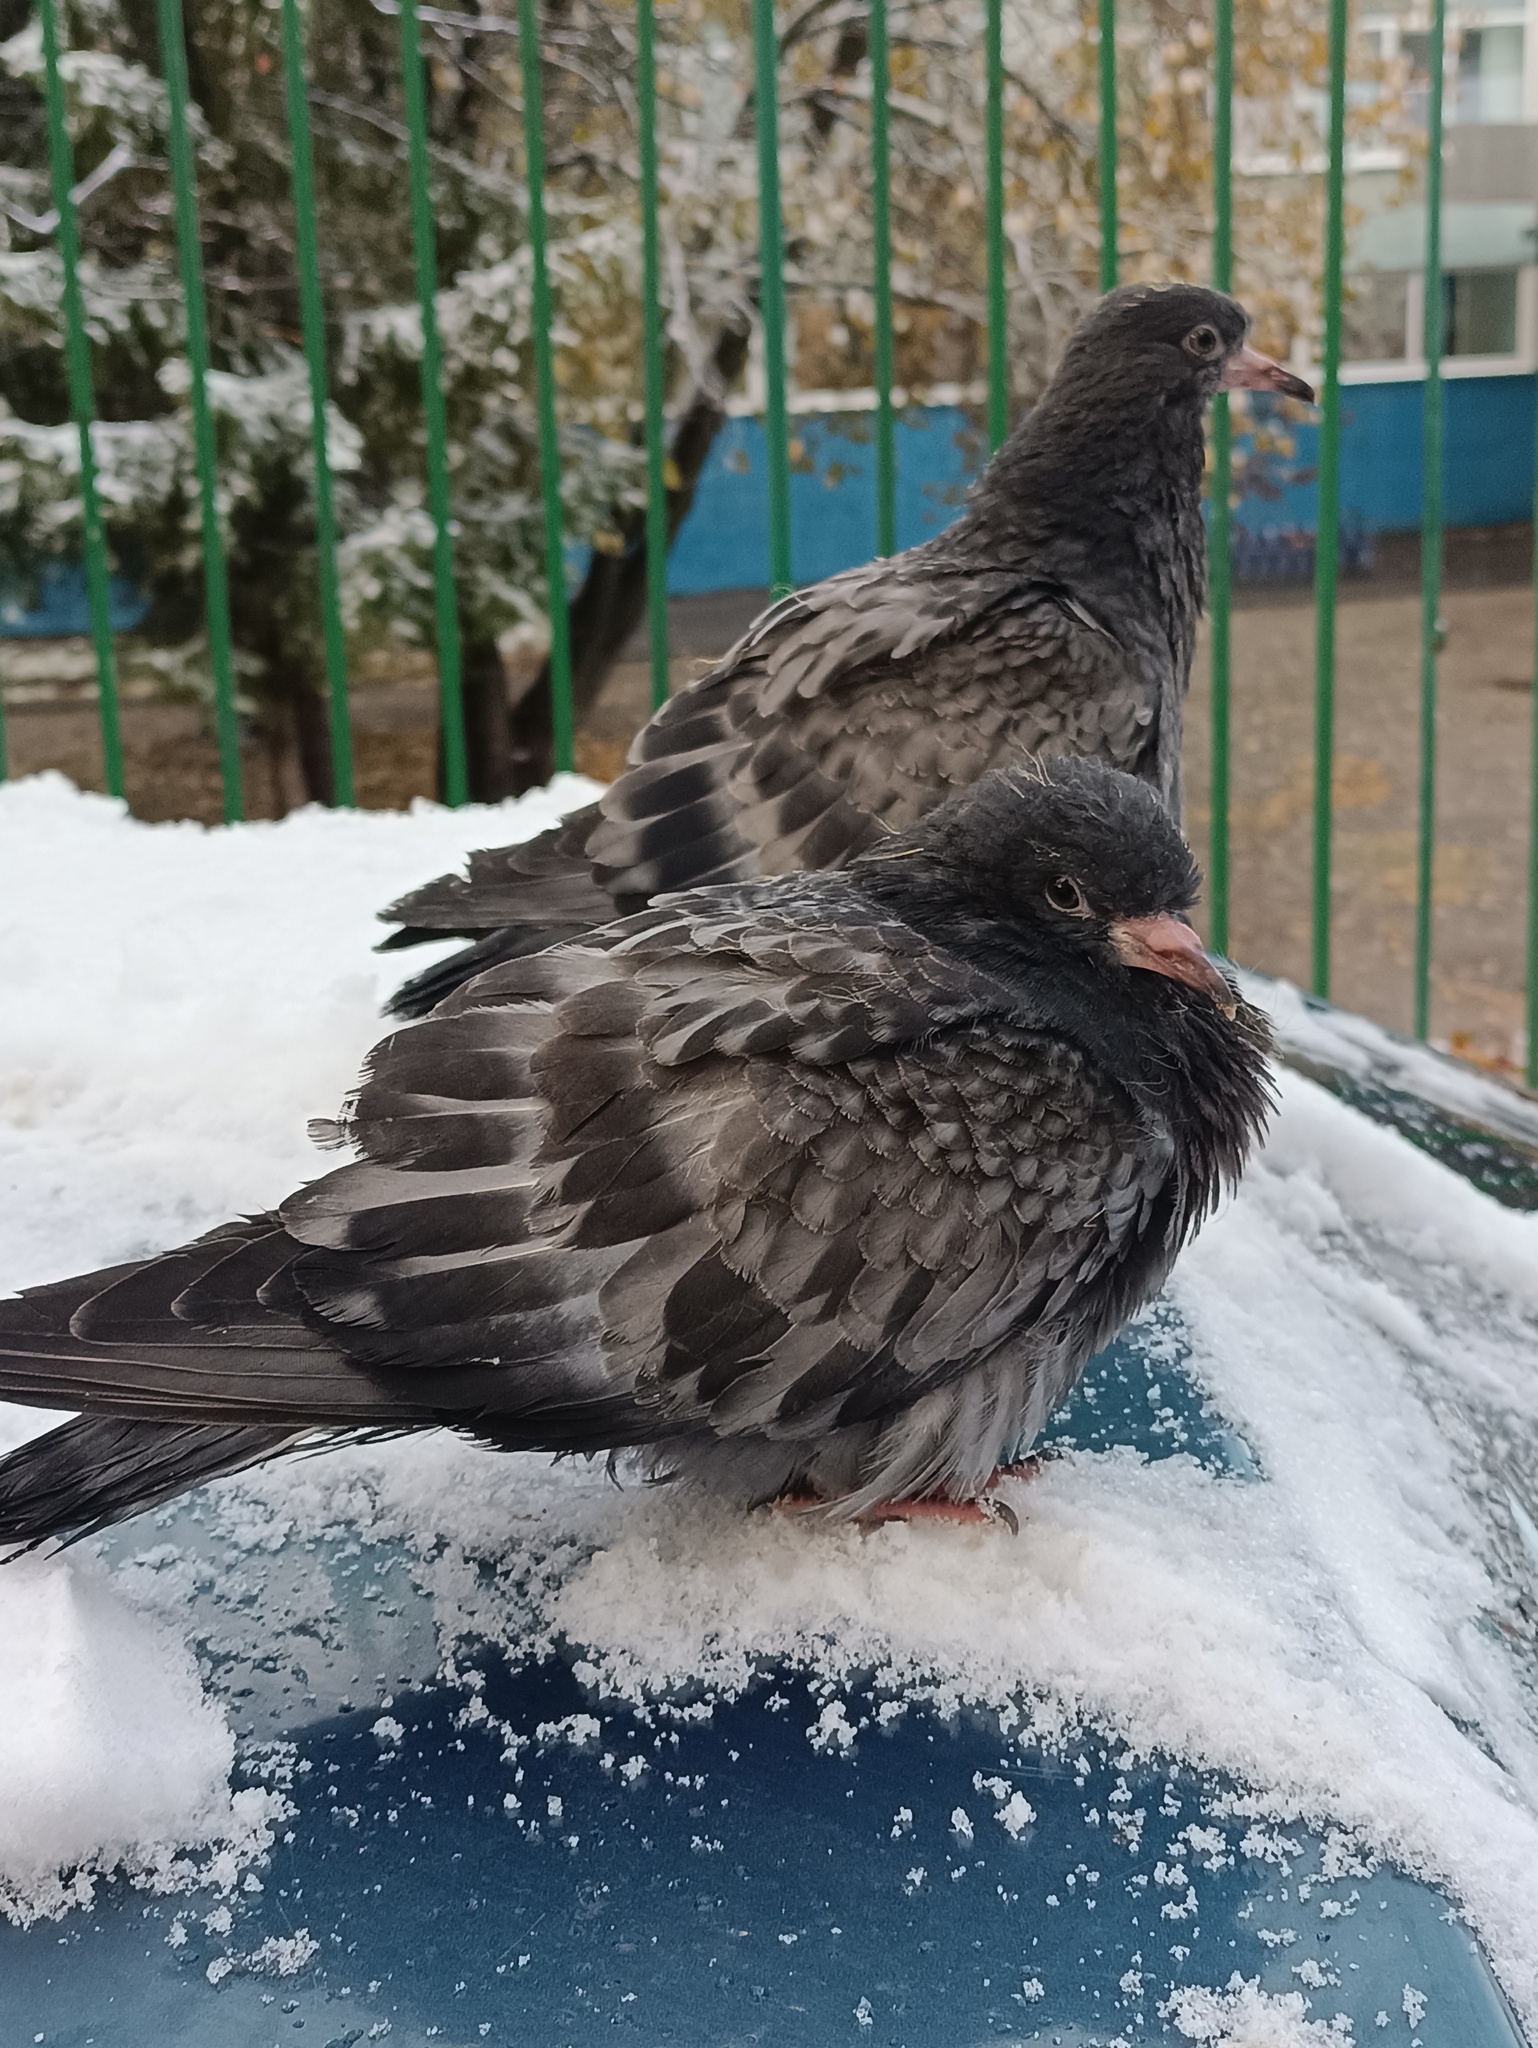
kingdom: Animalia
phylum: Chordata
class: Aves
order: Columbiformes
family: Columbidae
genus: Columba
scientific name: Columba livia
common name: Rock pigeon
